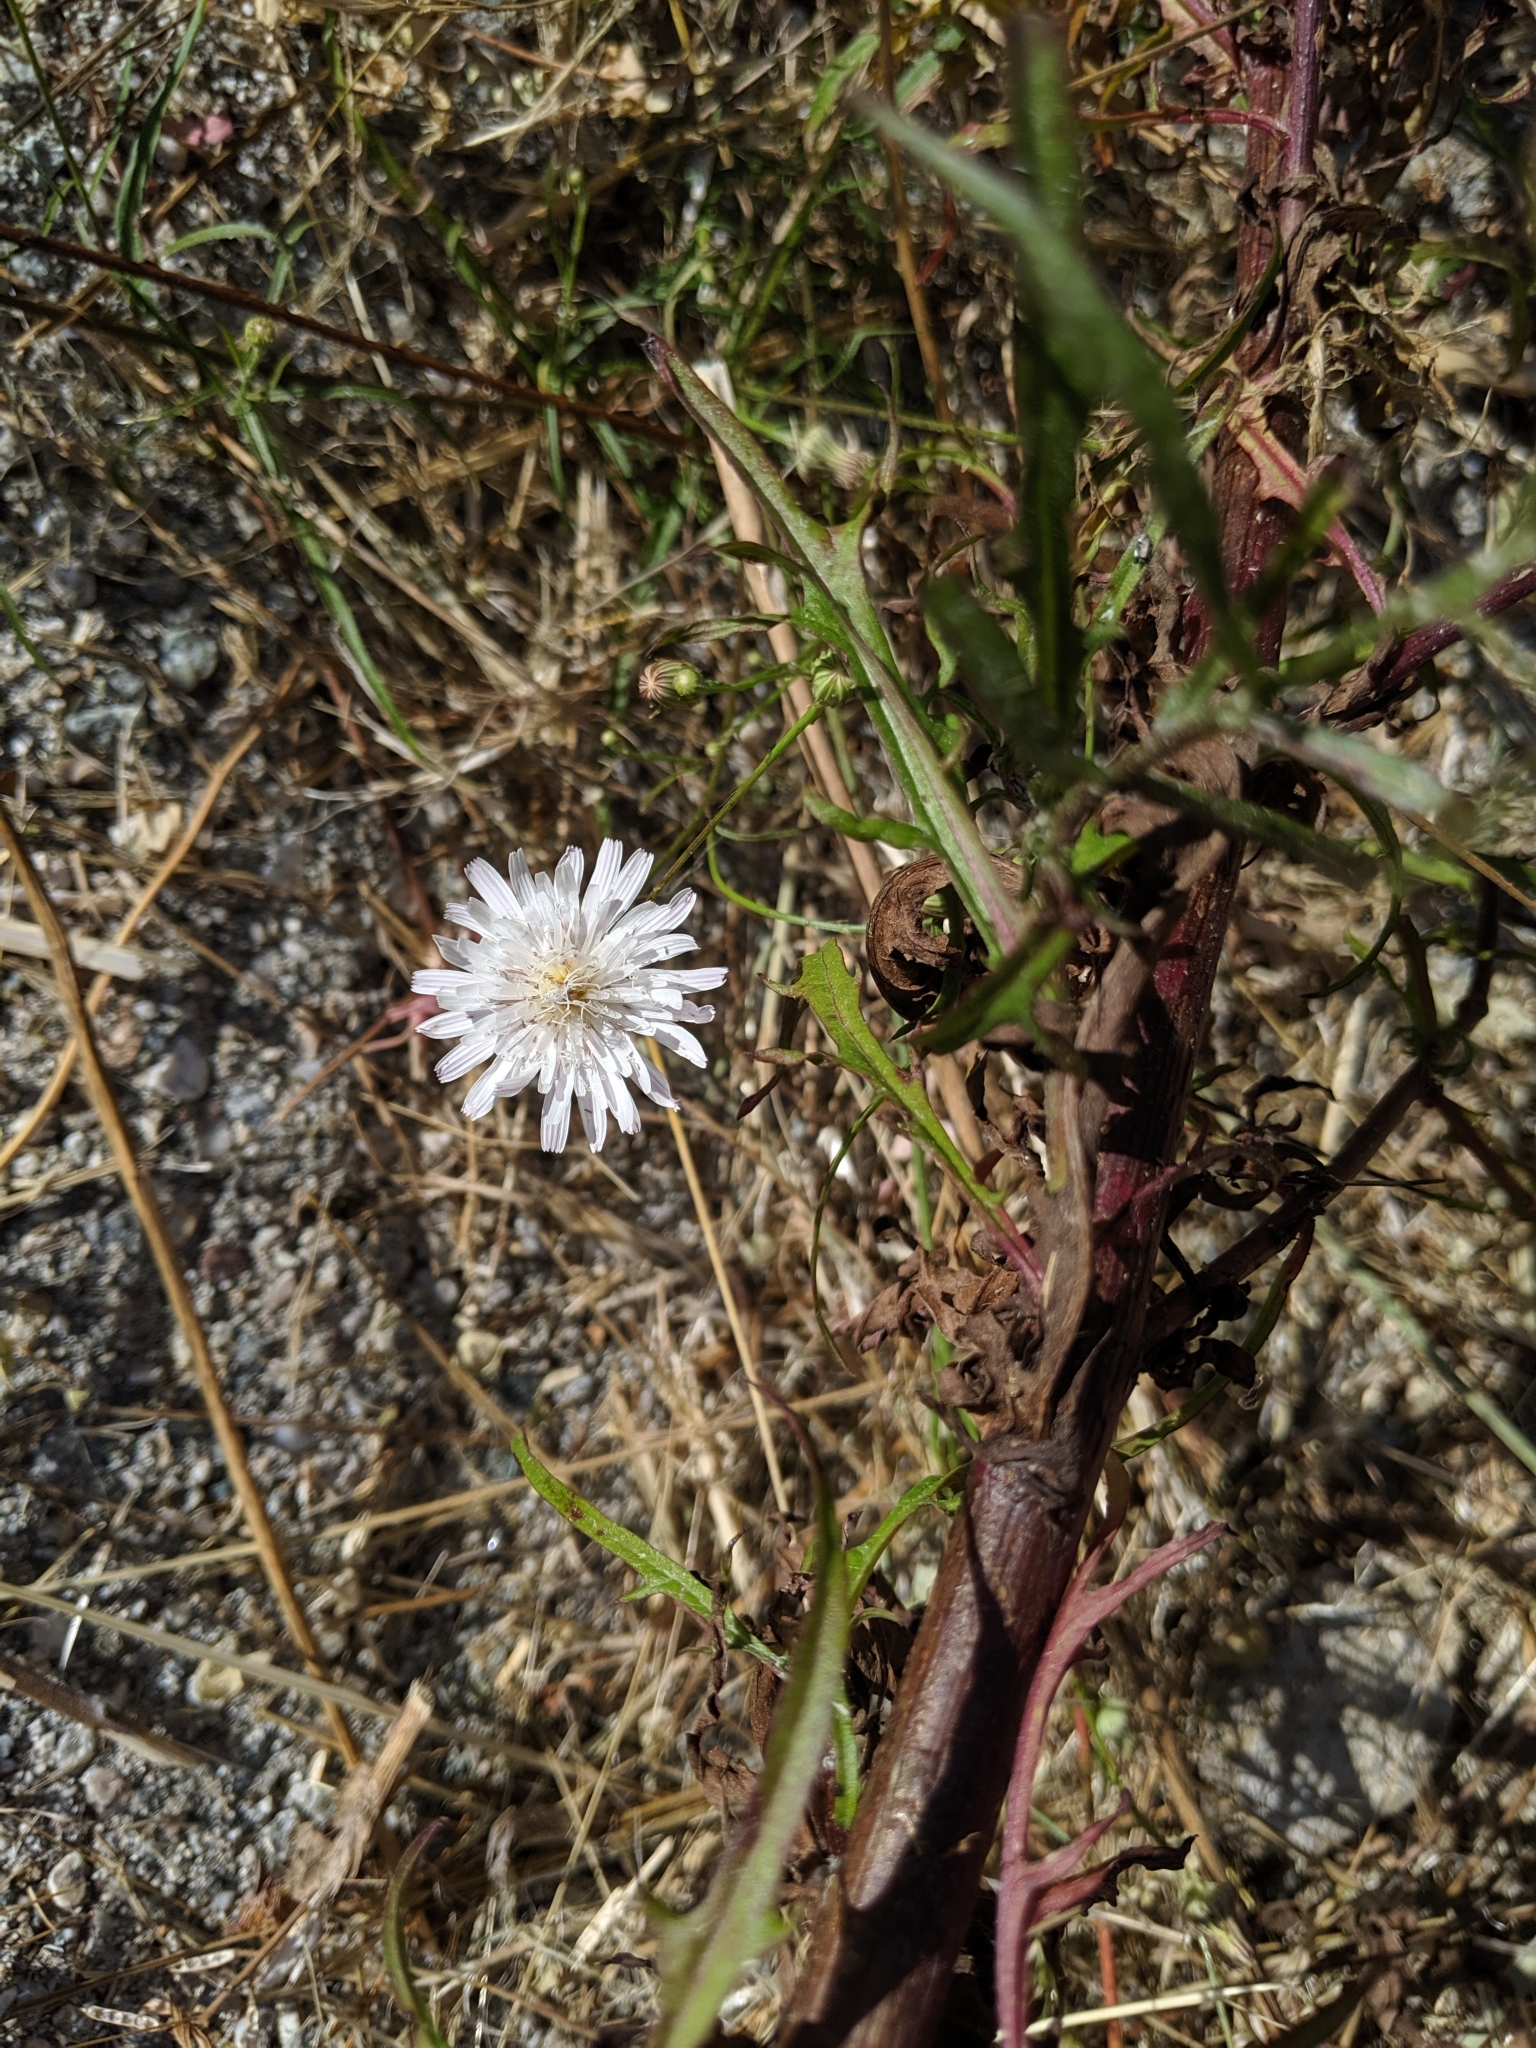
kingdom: Plantae
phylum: Tracheophyta
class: Magnoliopsida
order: Asterales
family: Asteraceae
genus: Malacothrix
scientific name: Malacothrix saxatilis
